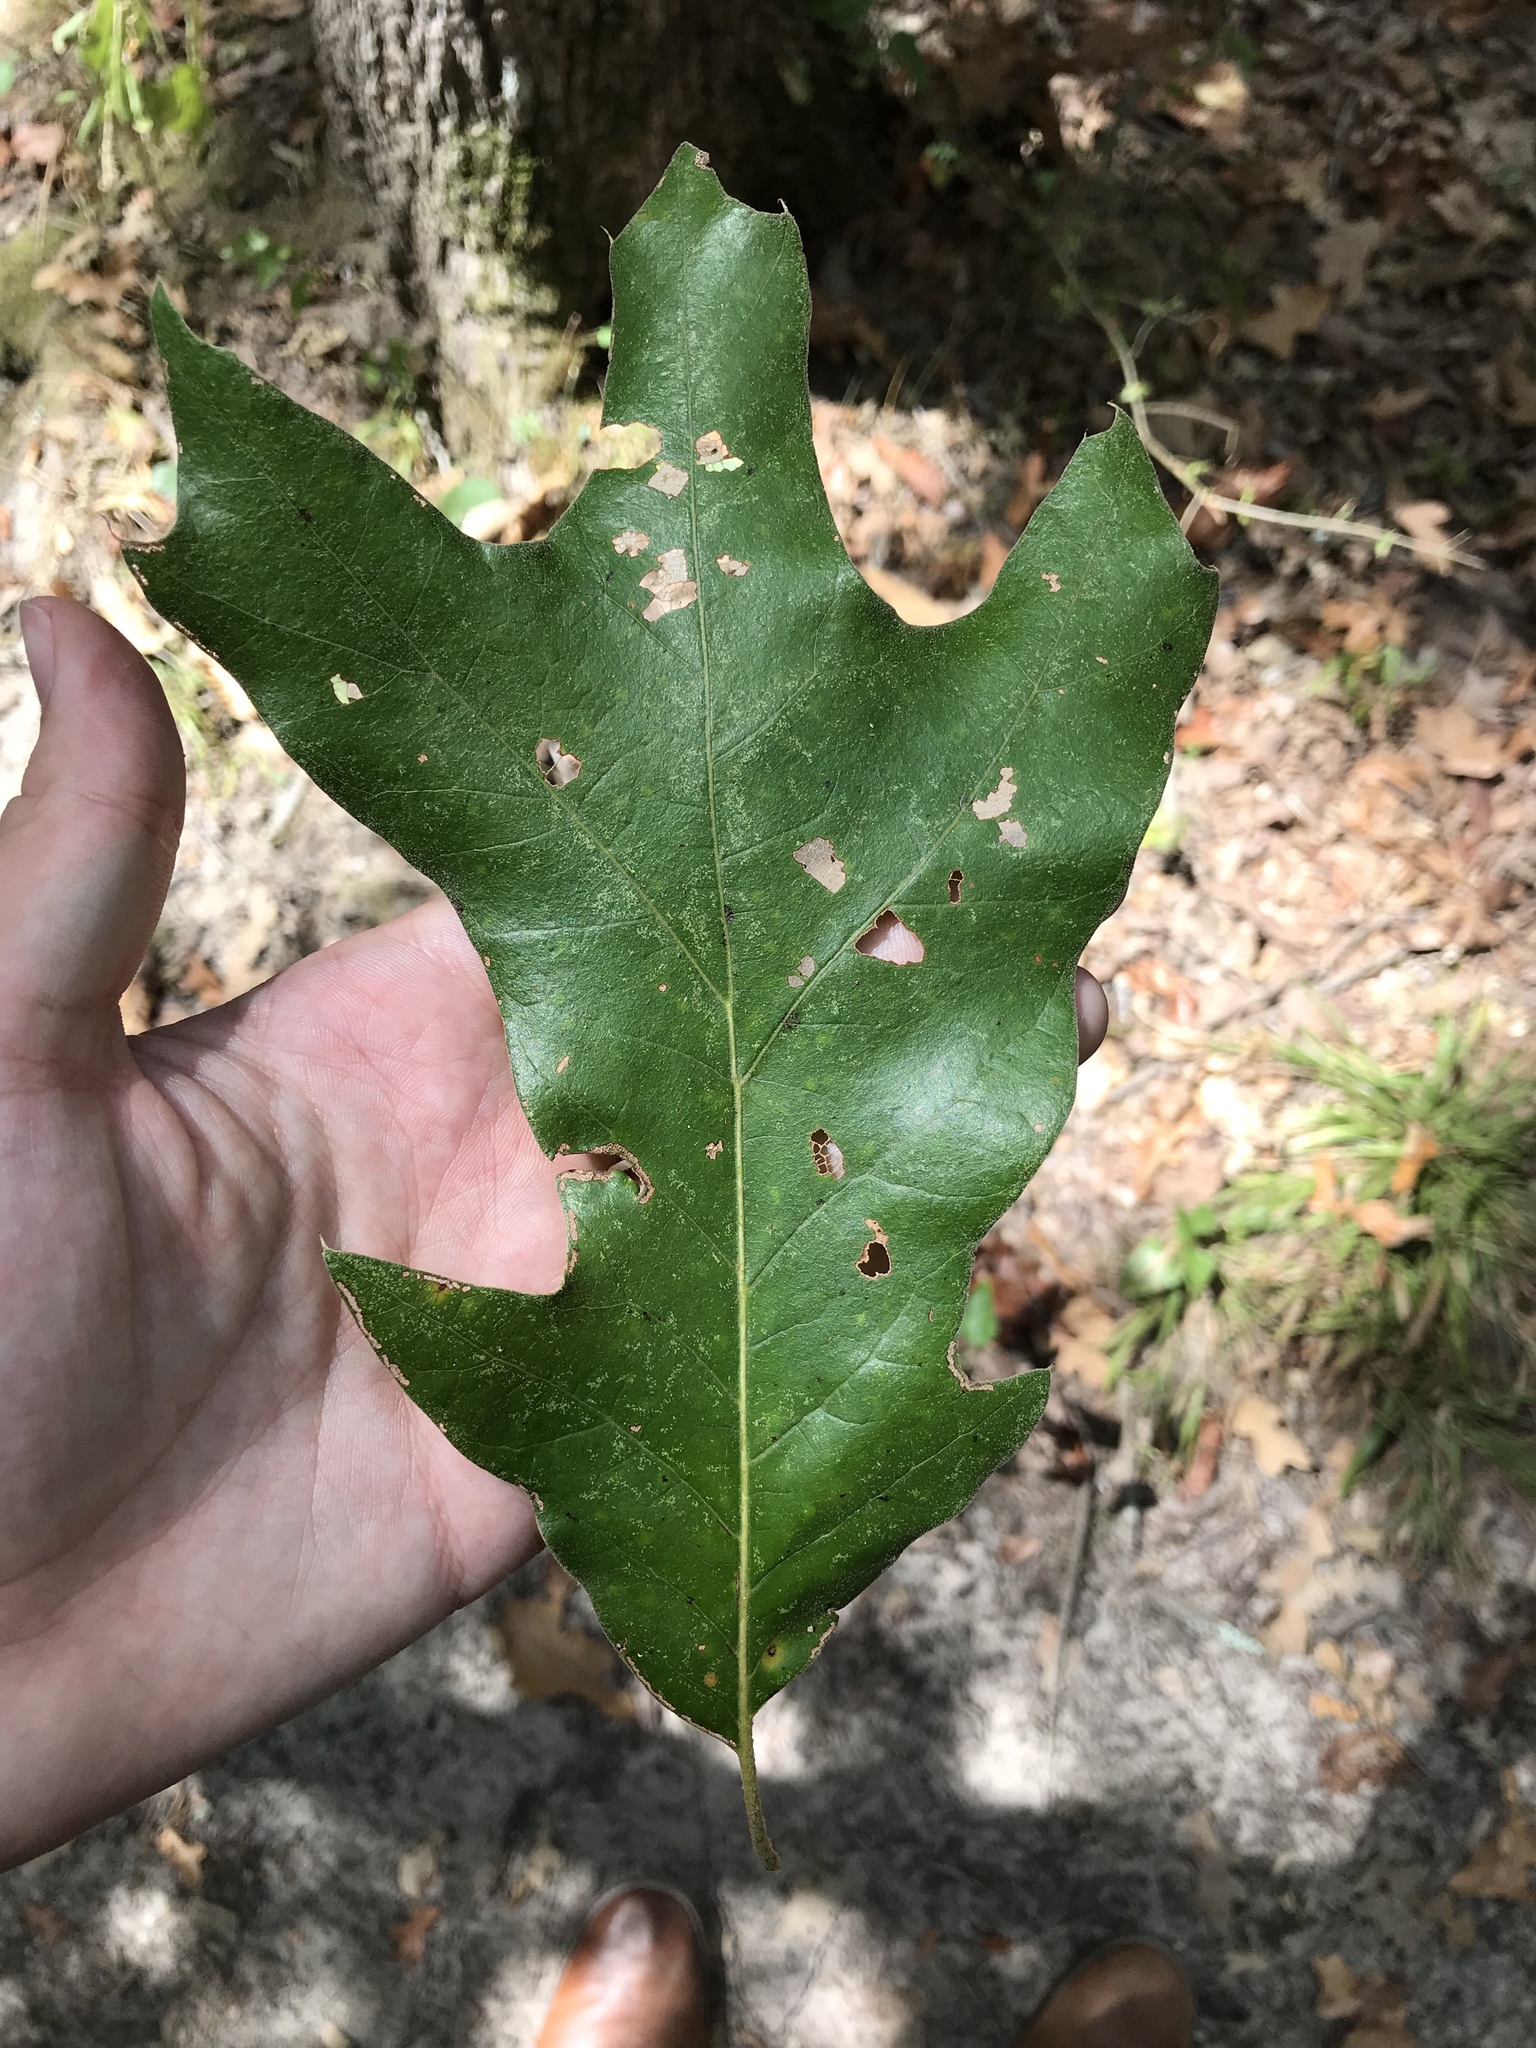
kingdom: Plantae
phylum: Tracheophyta
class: Magnoliopsida
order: Fagales
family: Fagaceae
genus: Quercus
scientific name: Quercus falcata
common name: Southern red oak
